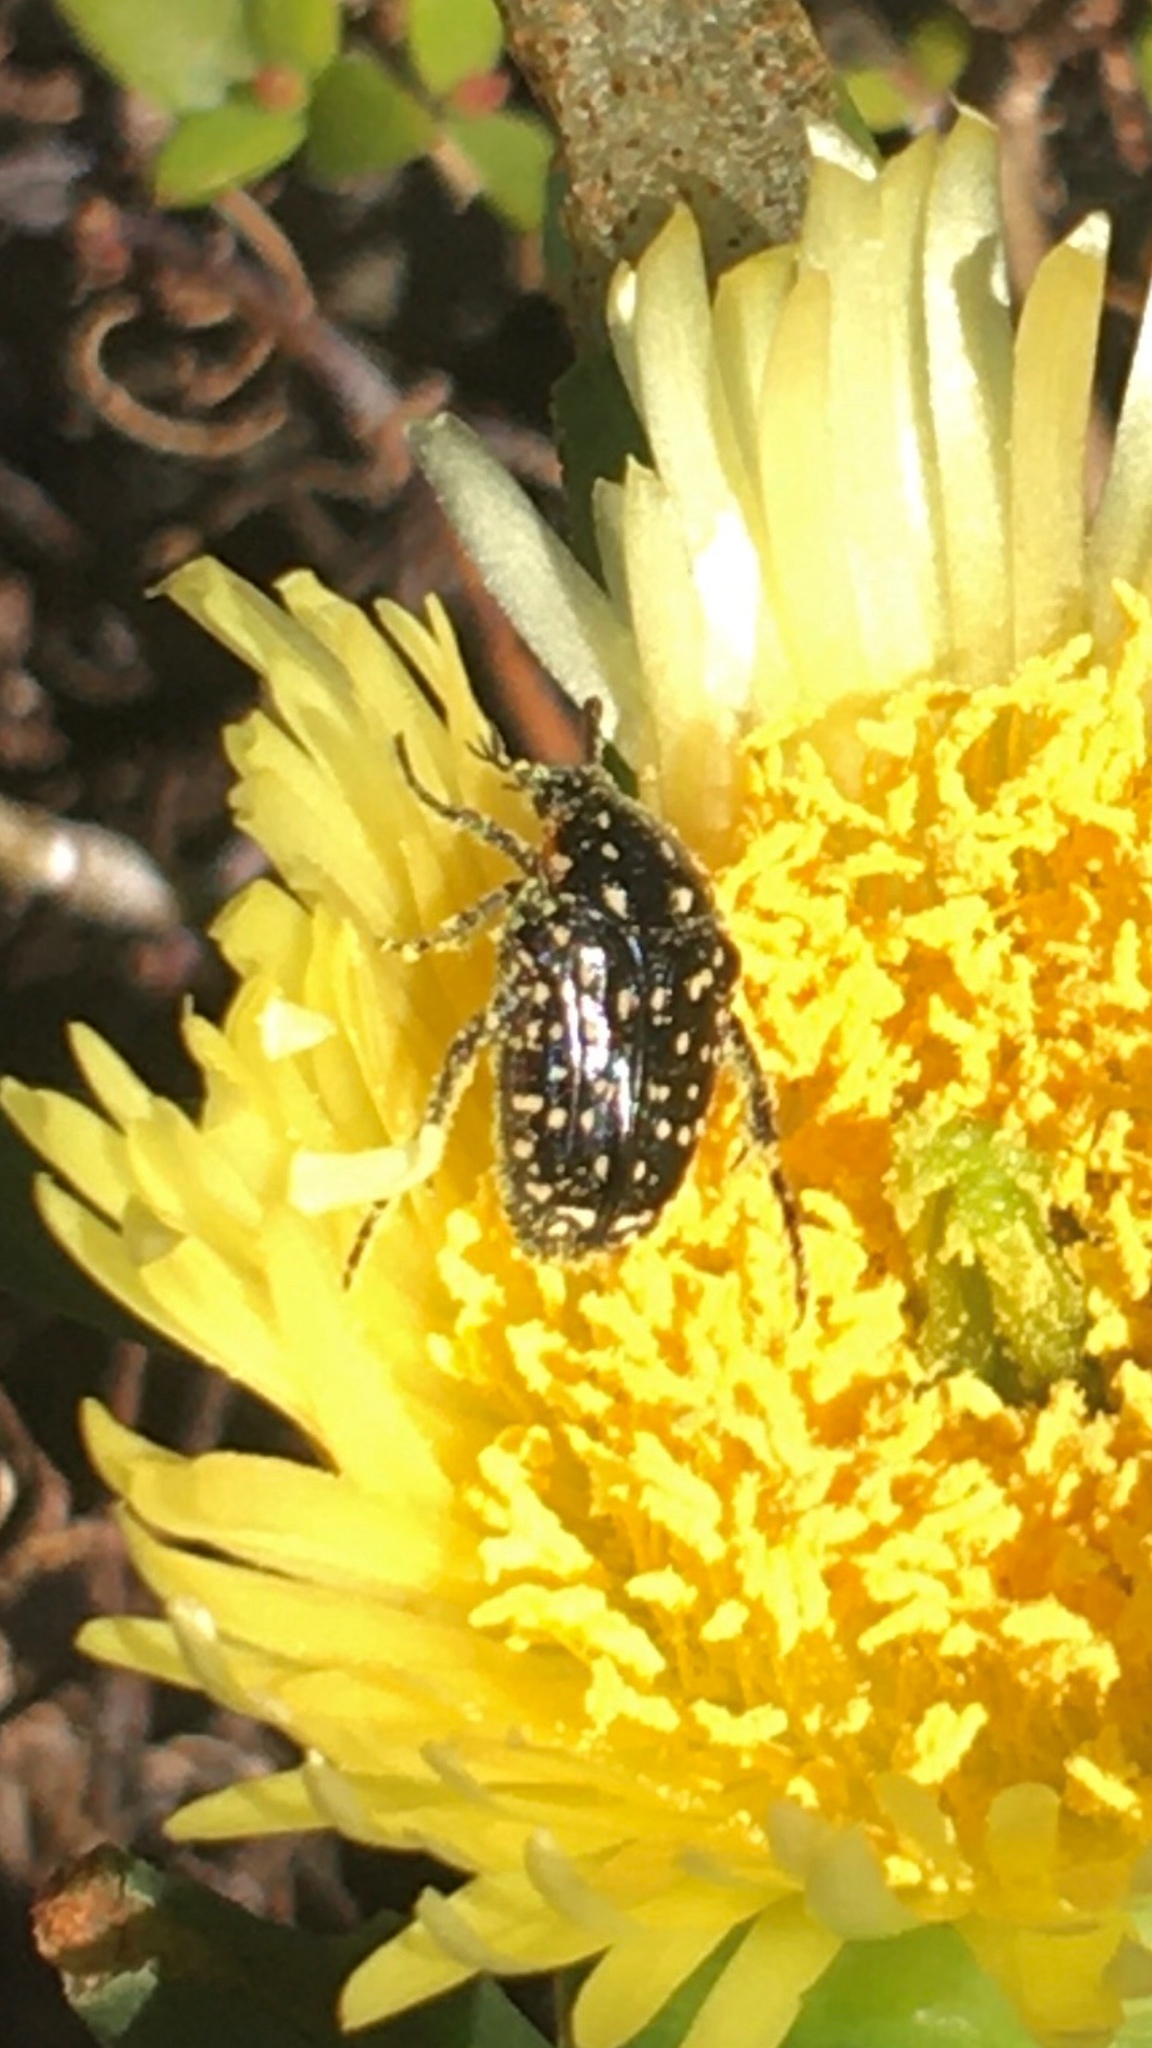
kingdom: Animalia
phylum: Arthropoda
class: Insecta
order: Coleoptera
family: Scarabaeidae
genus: Oxythyrea
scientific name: Oxythyrea
